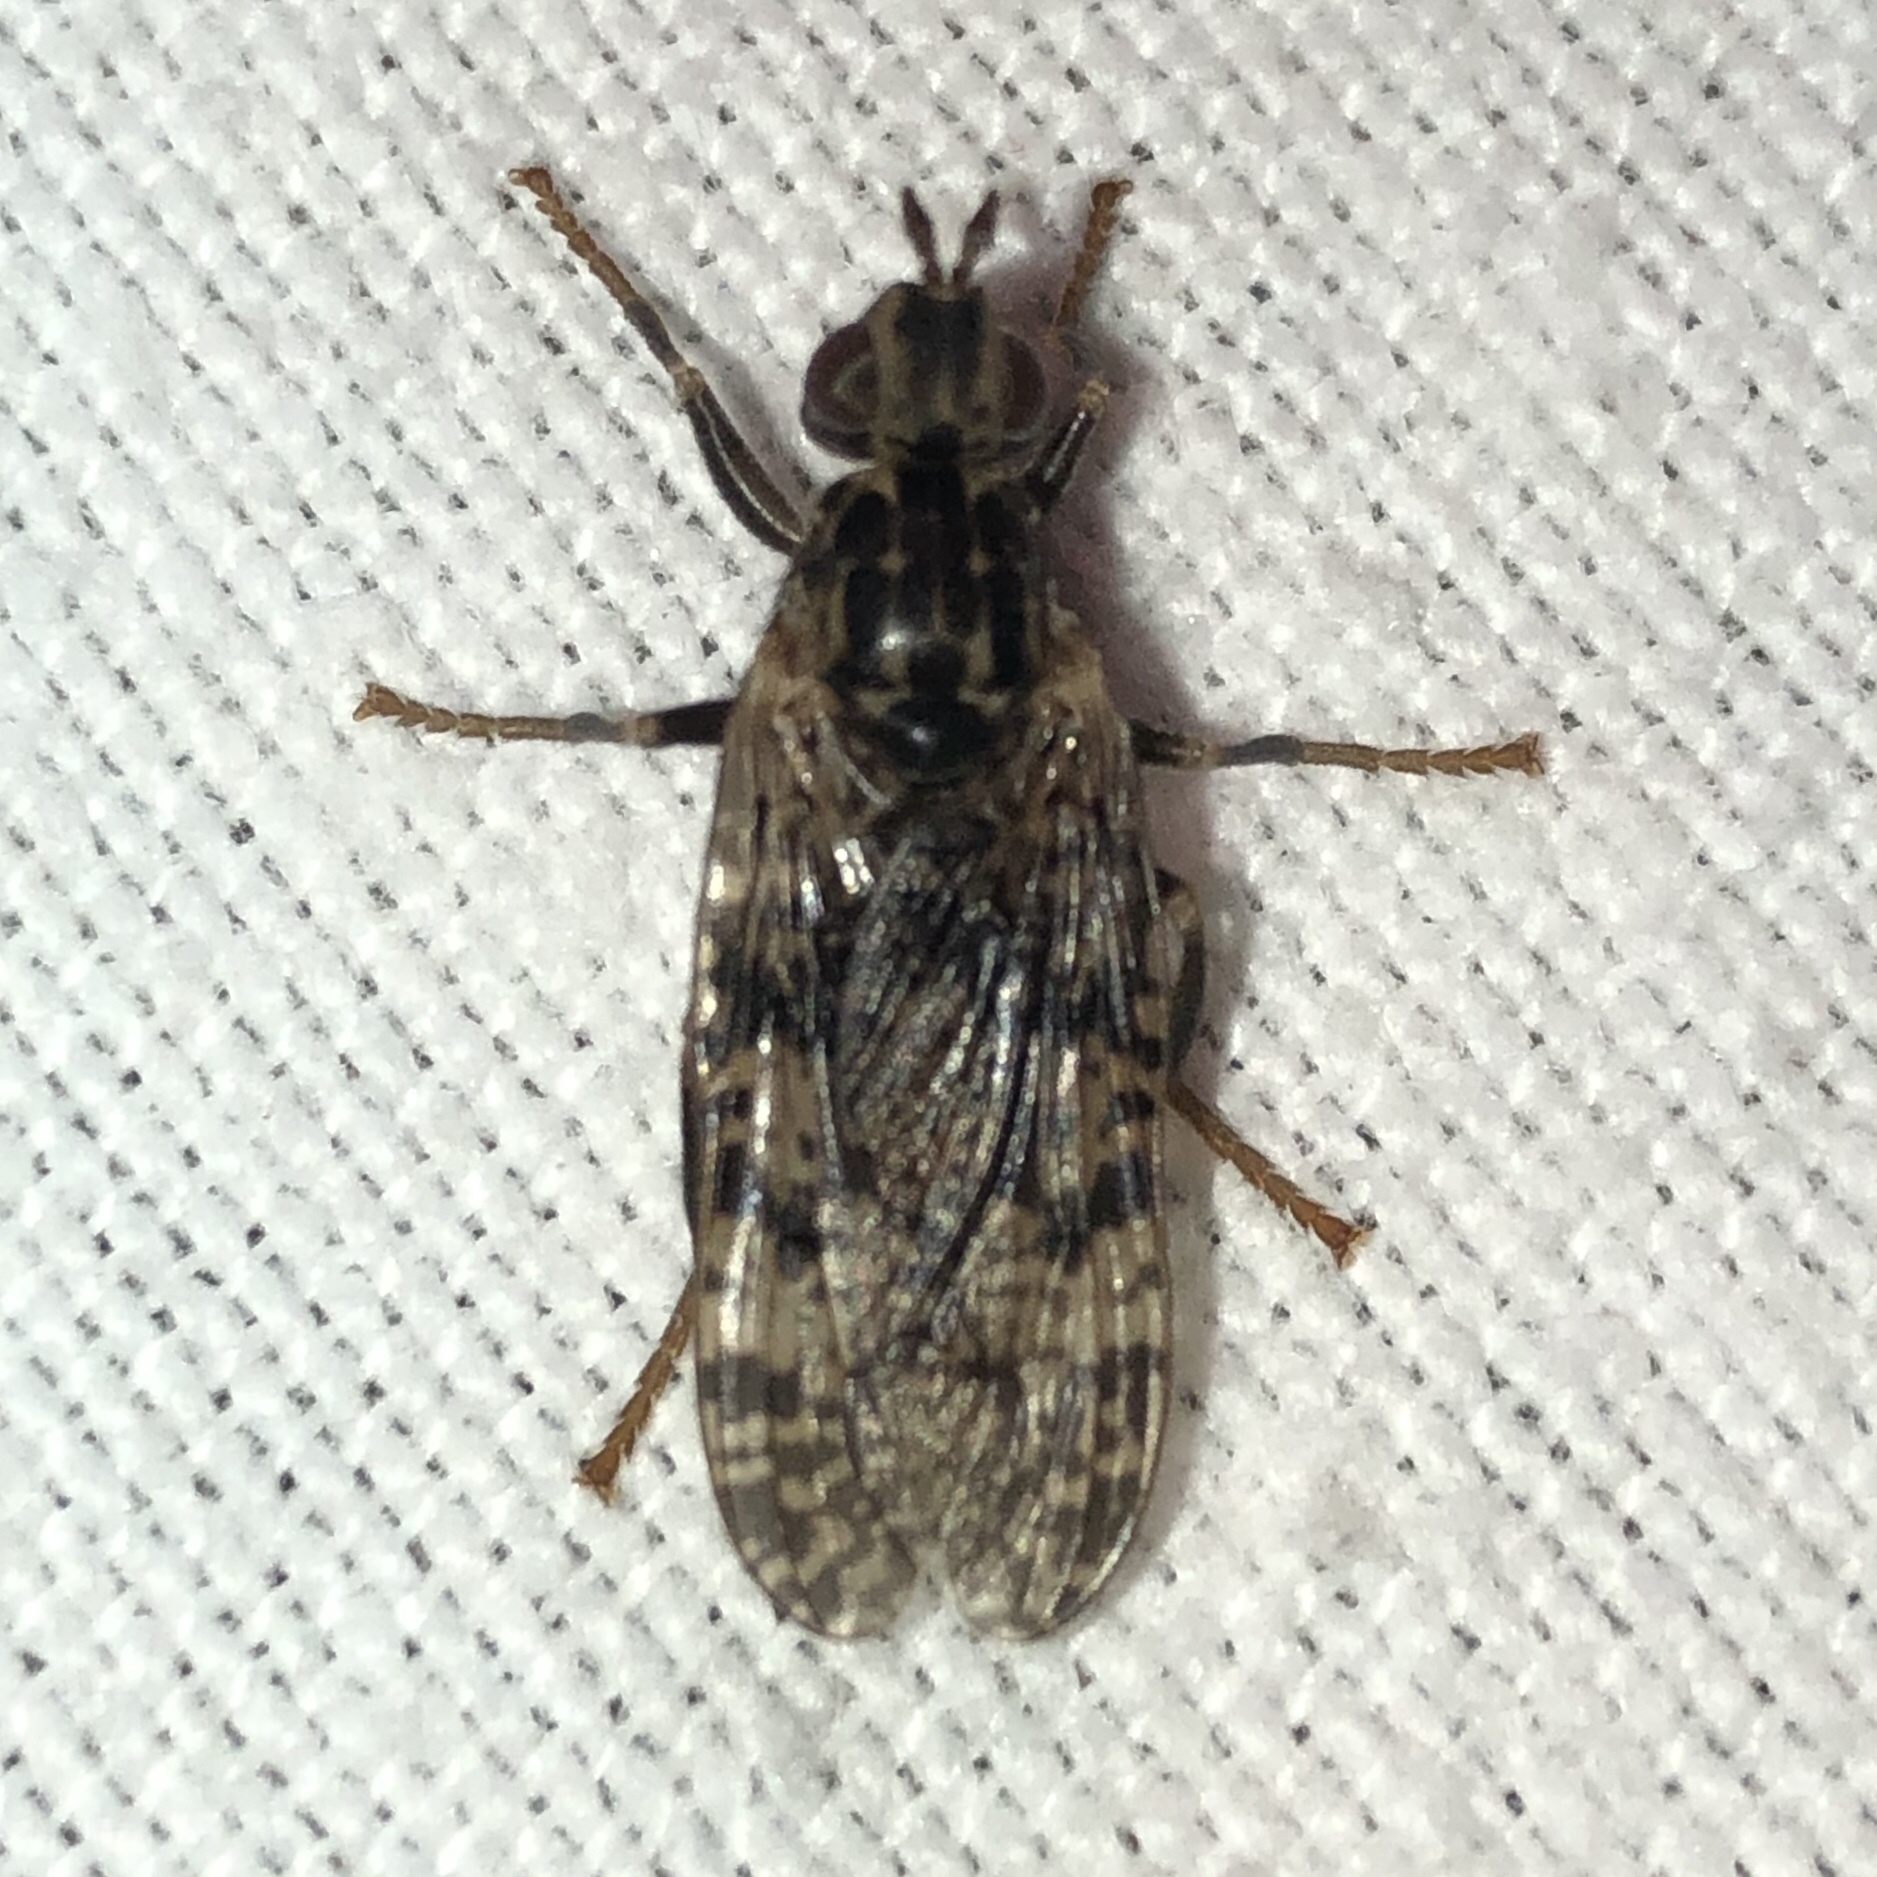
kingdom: Animalia
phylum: Arthropoda
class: Insecta
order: Diptera
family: Pyrgotidae
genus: Pyrgota
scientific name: Pyrgota valida
